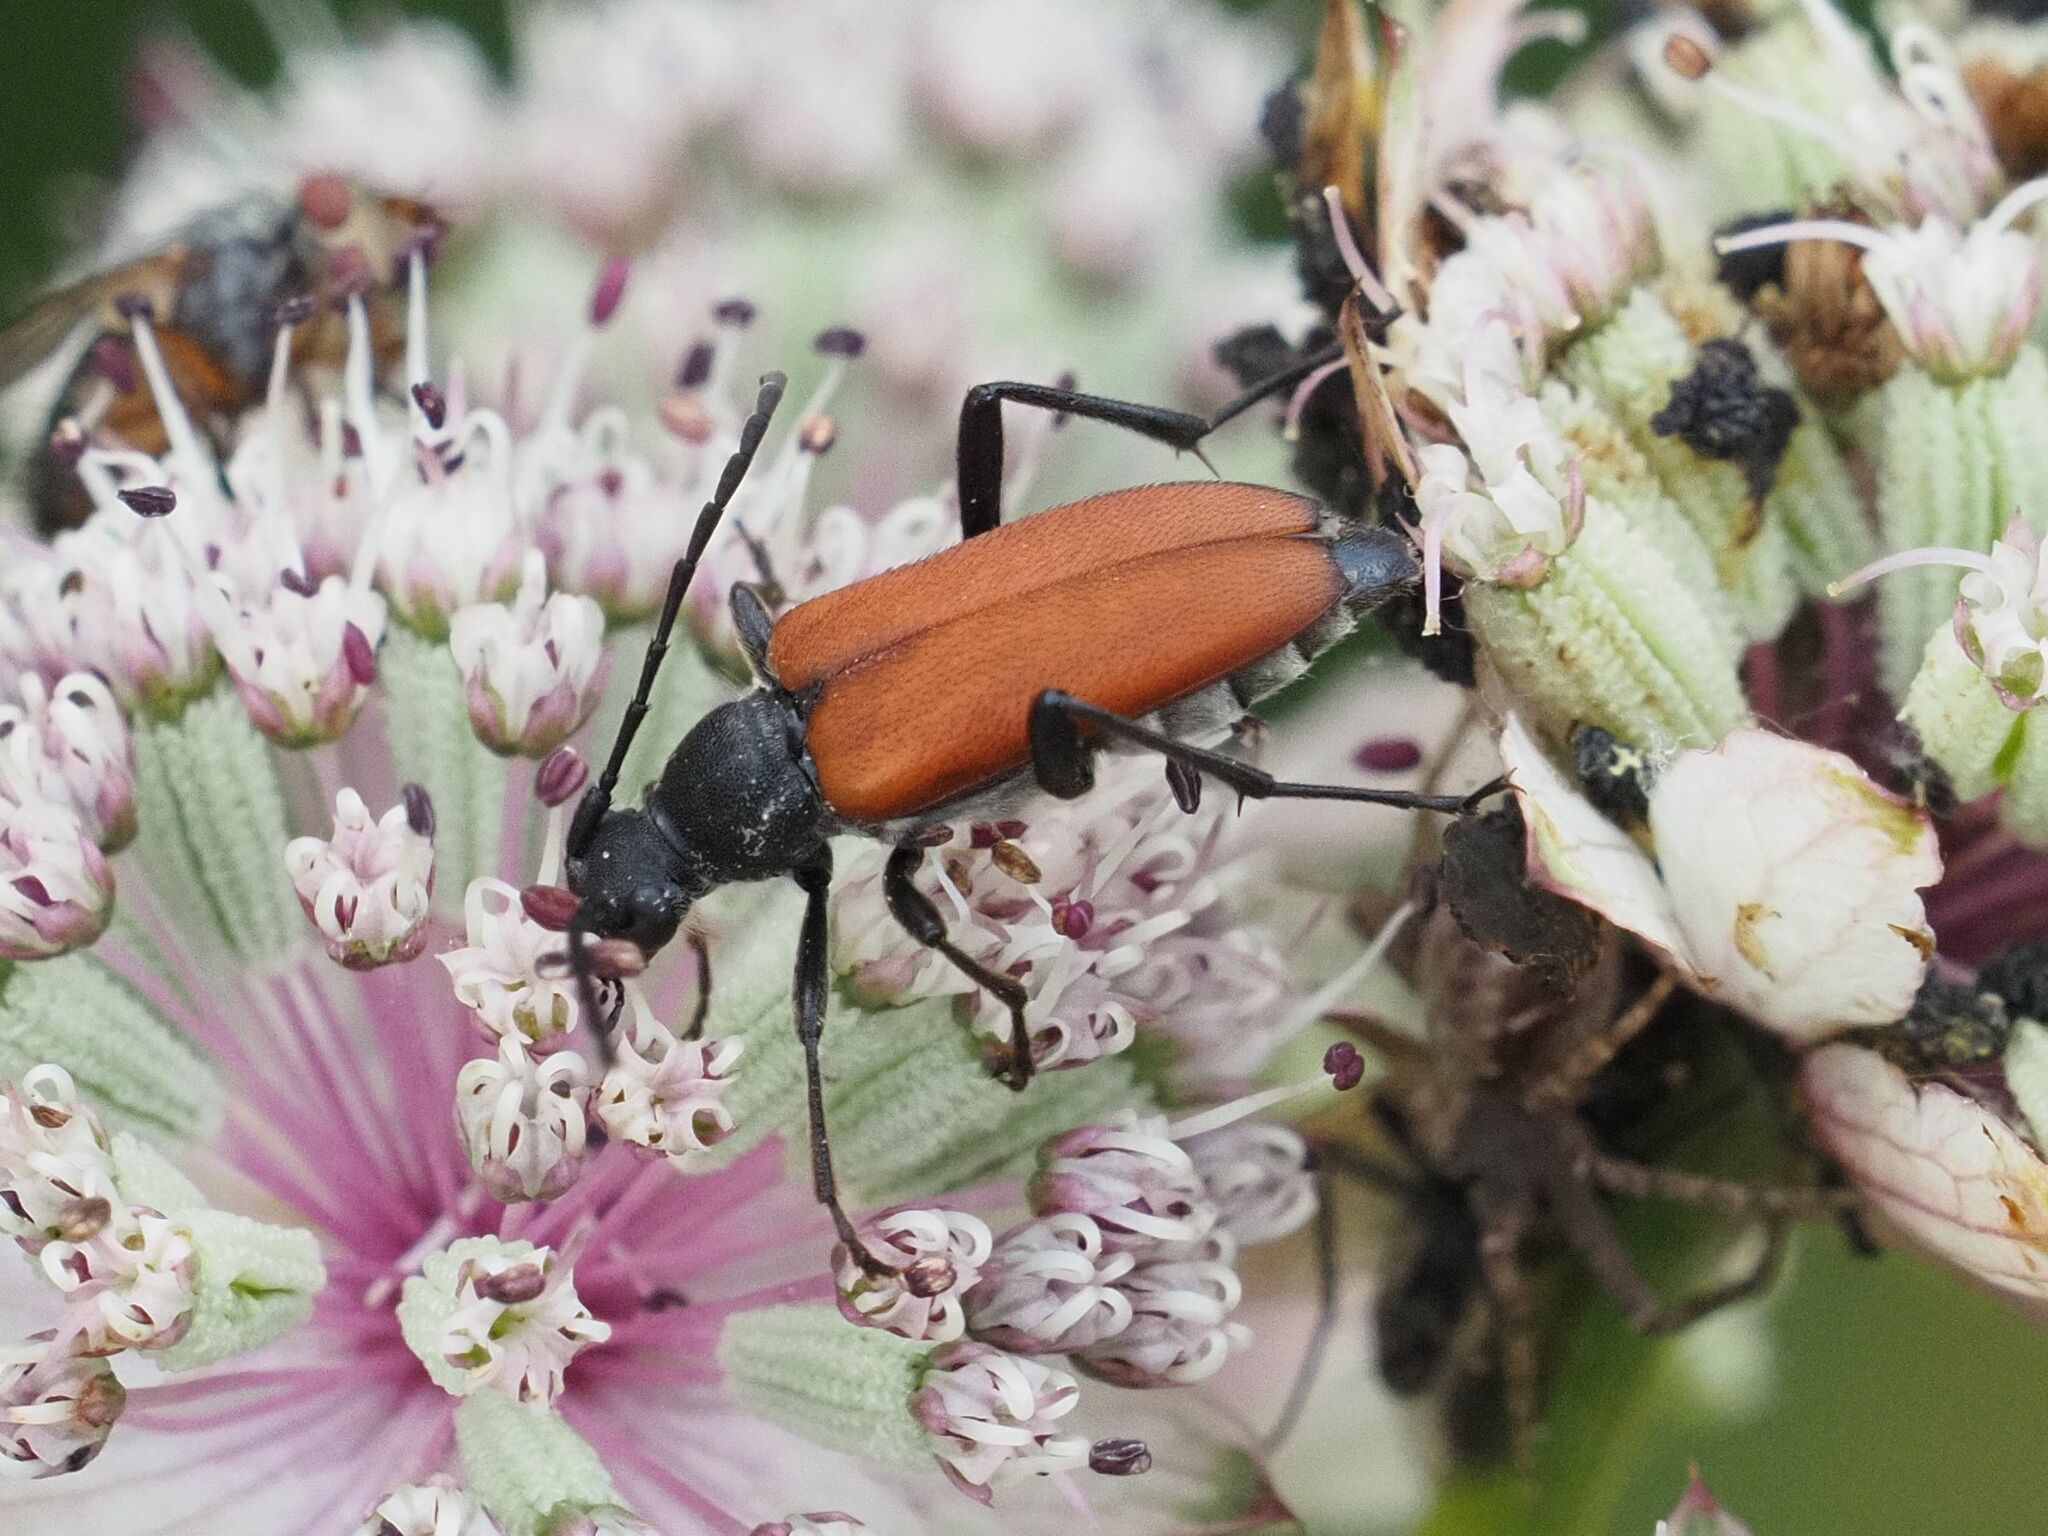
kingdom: Animalia
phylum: Arthropoda
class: Insecta
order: Coleoptera
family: Cerambycidae
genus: Anastrangalia
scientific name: Anastrangalia sanguinolenta
